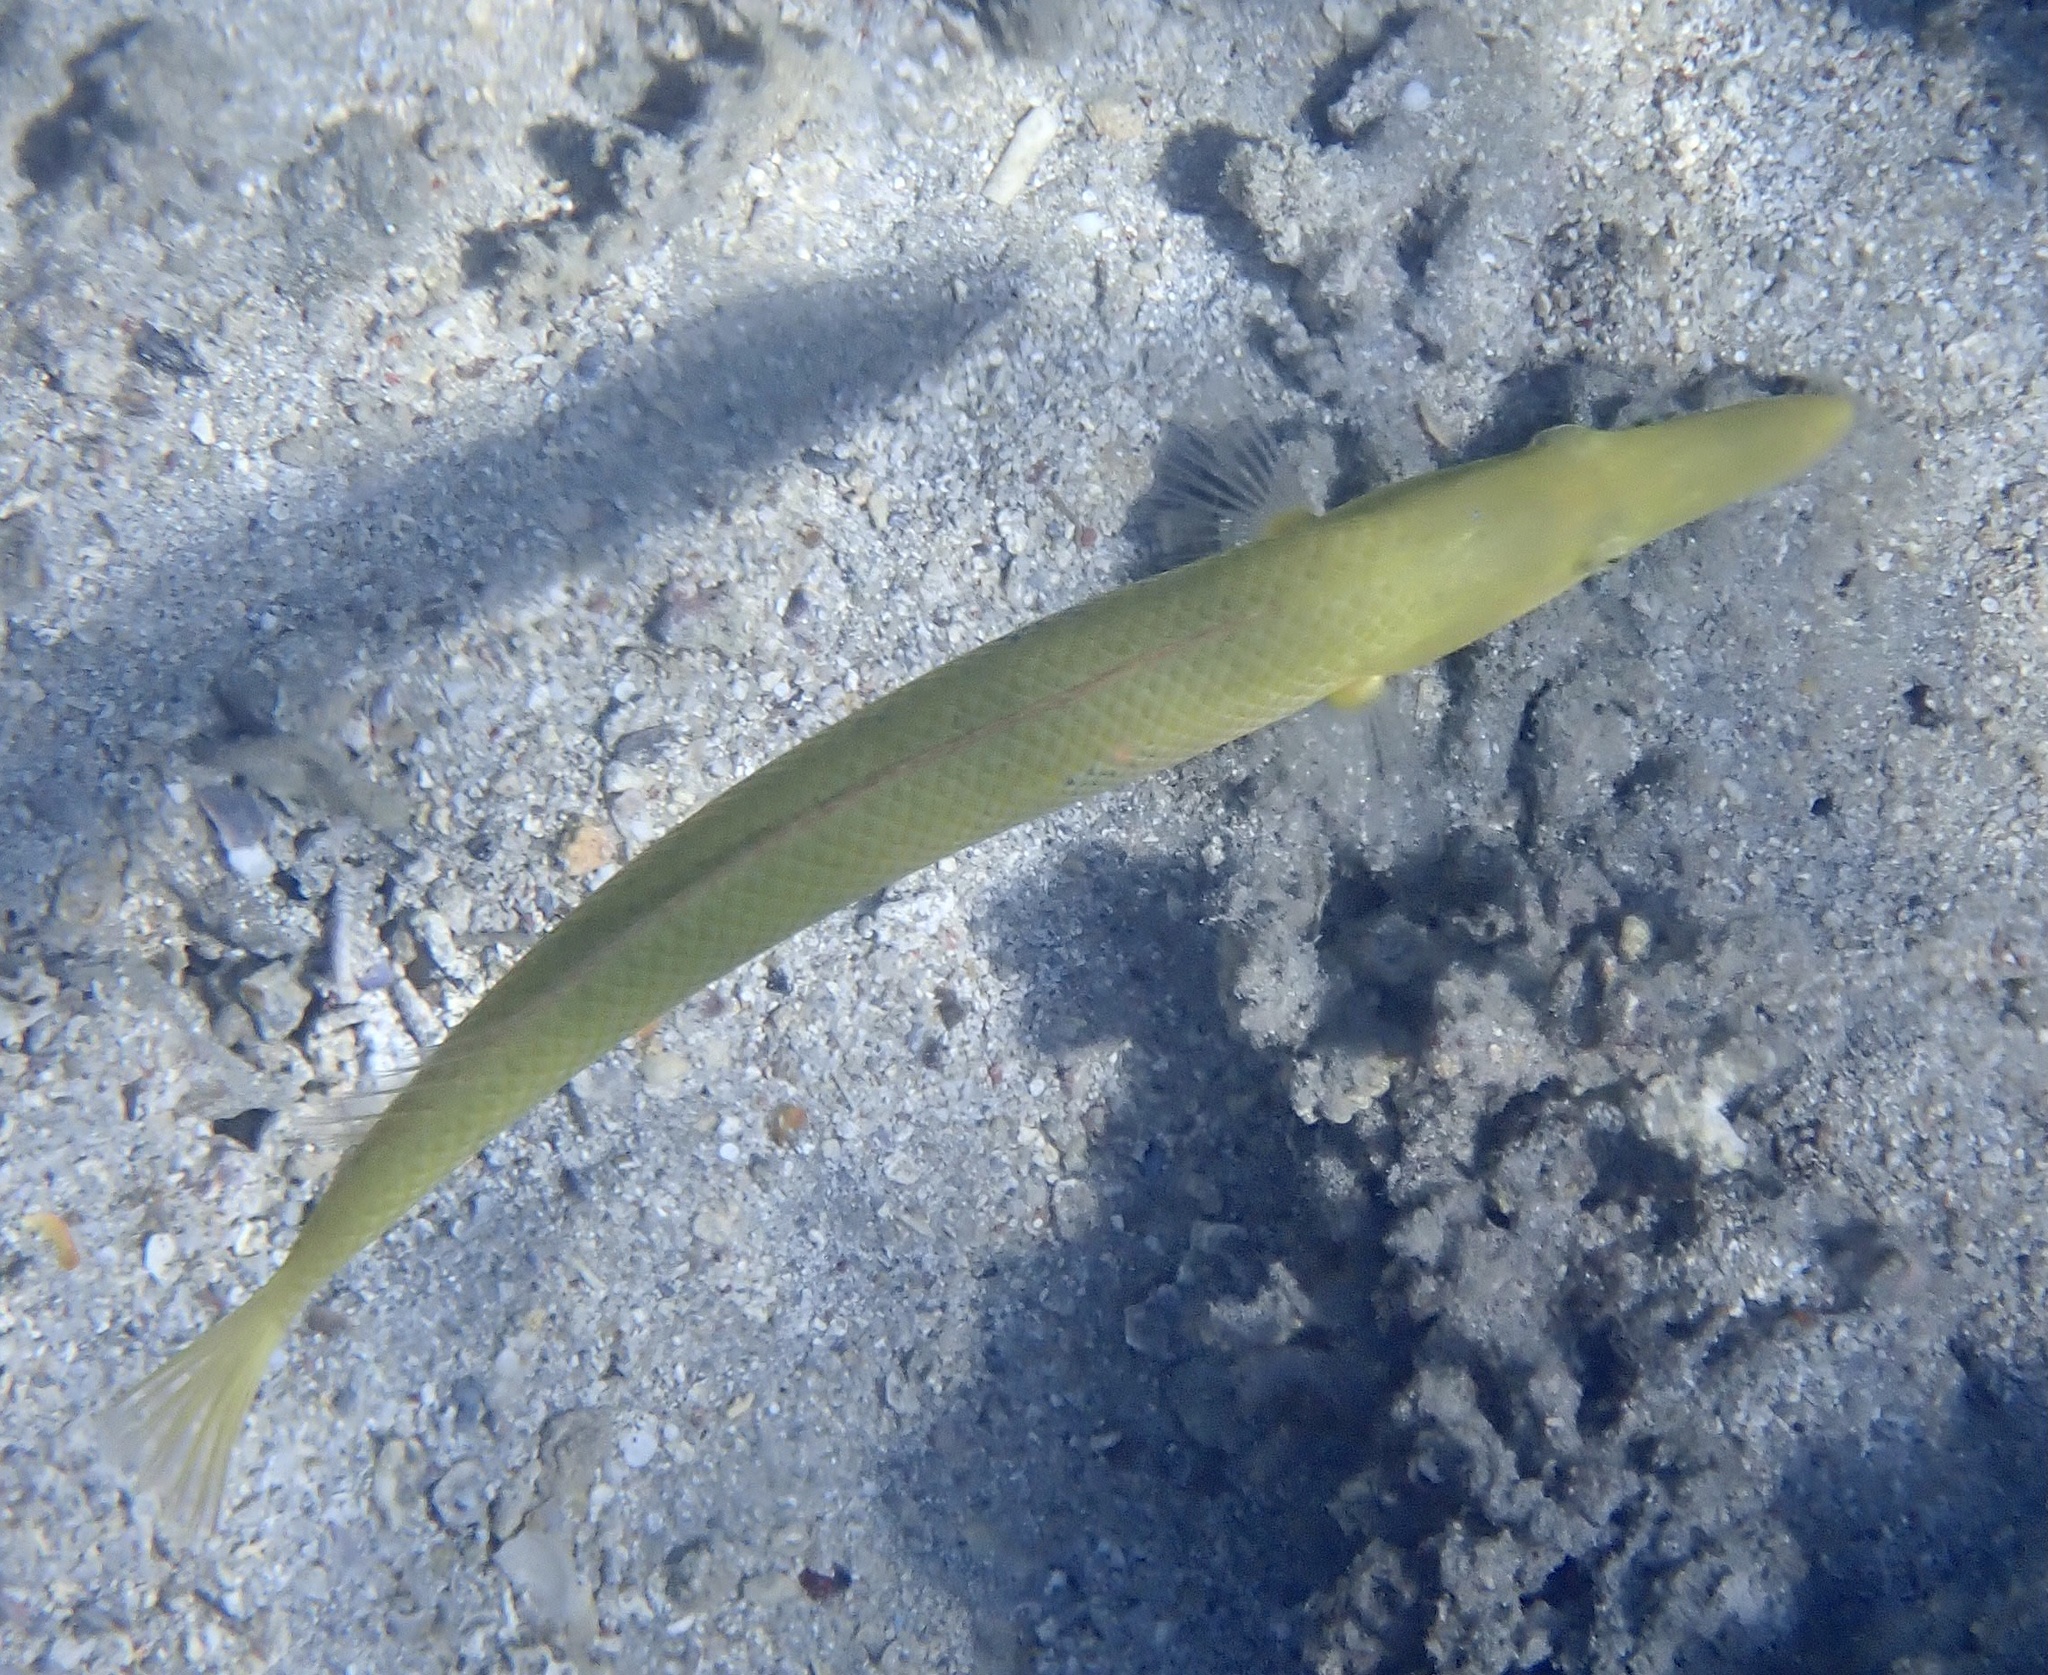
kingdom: Animalia
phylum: Chordata
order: Perciformes
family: Labridae
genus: Cheilio
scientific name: Cheilio inermis
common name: Cigar wrasse
